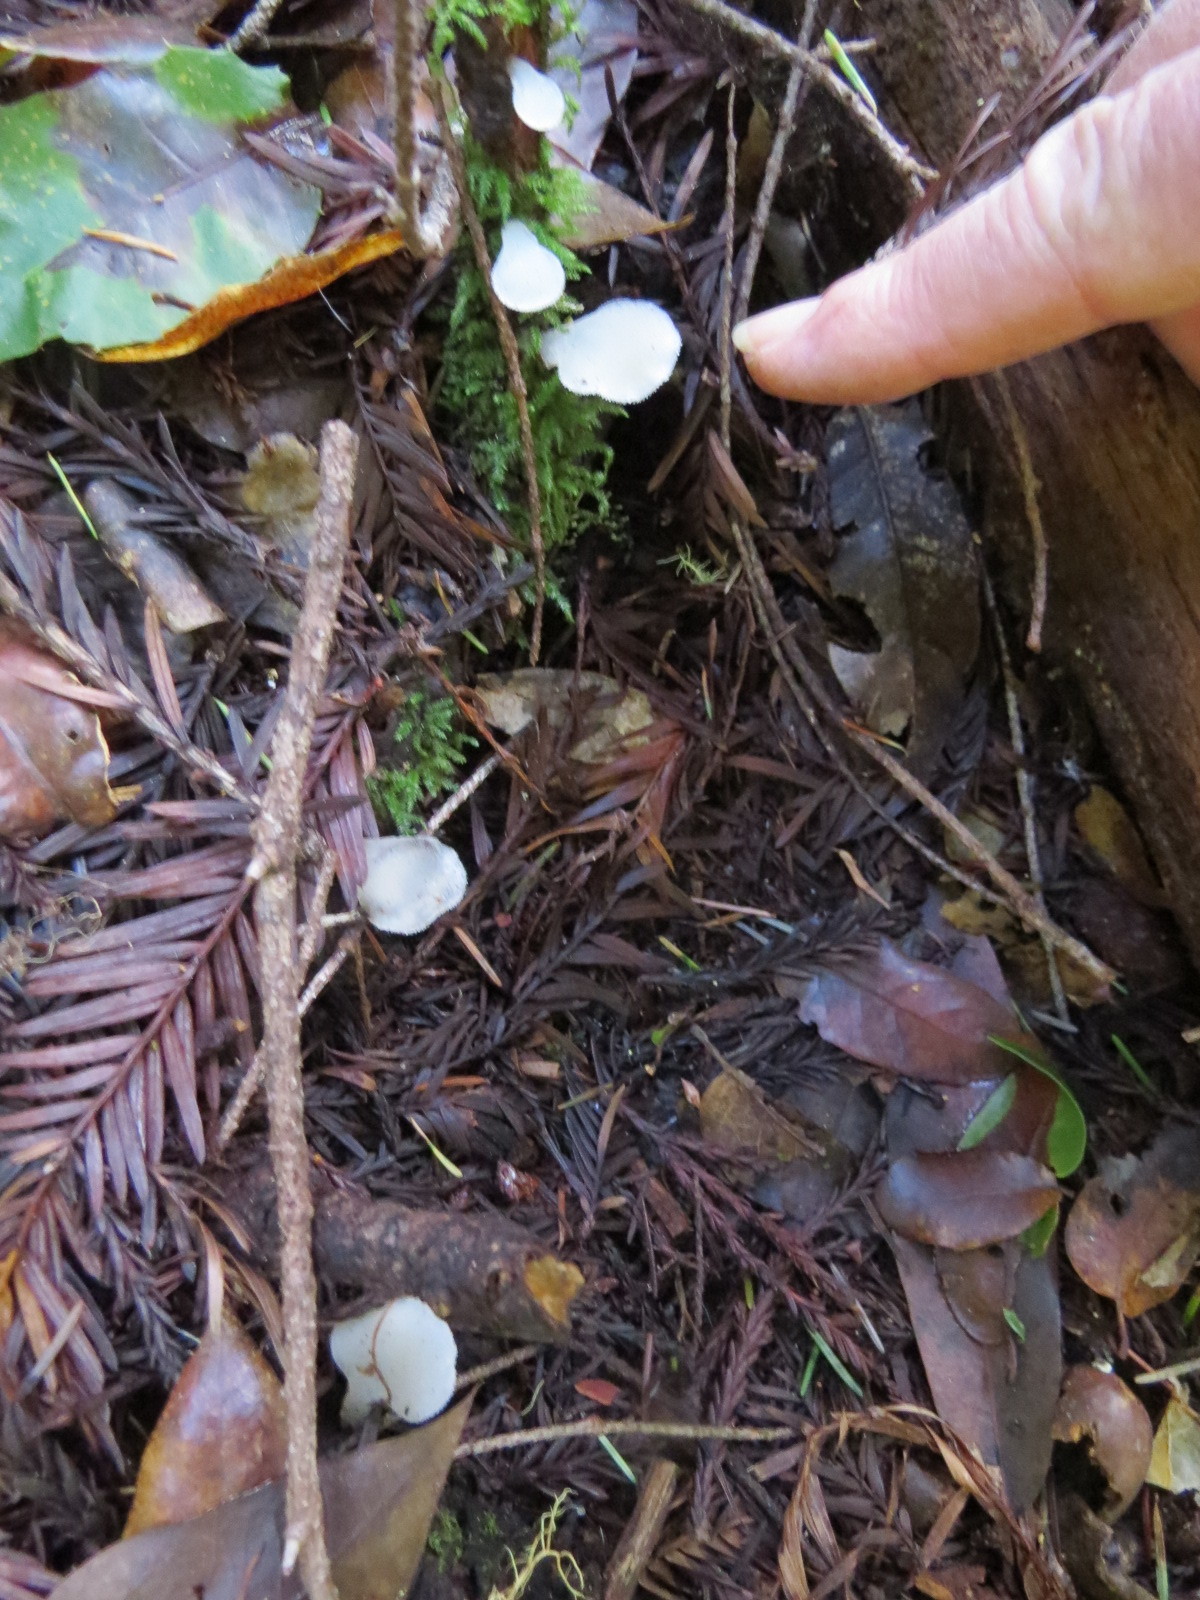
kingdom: Fungi
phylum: Basidiomycota
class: Agaricomycetes
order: Auriculariales
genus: Pseudohydnum
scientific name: Pseudohydnum gelatinosum
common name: Jelly tongue
